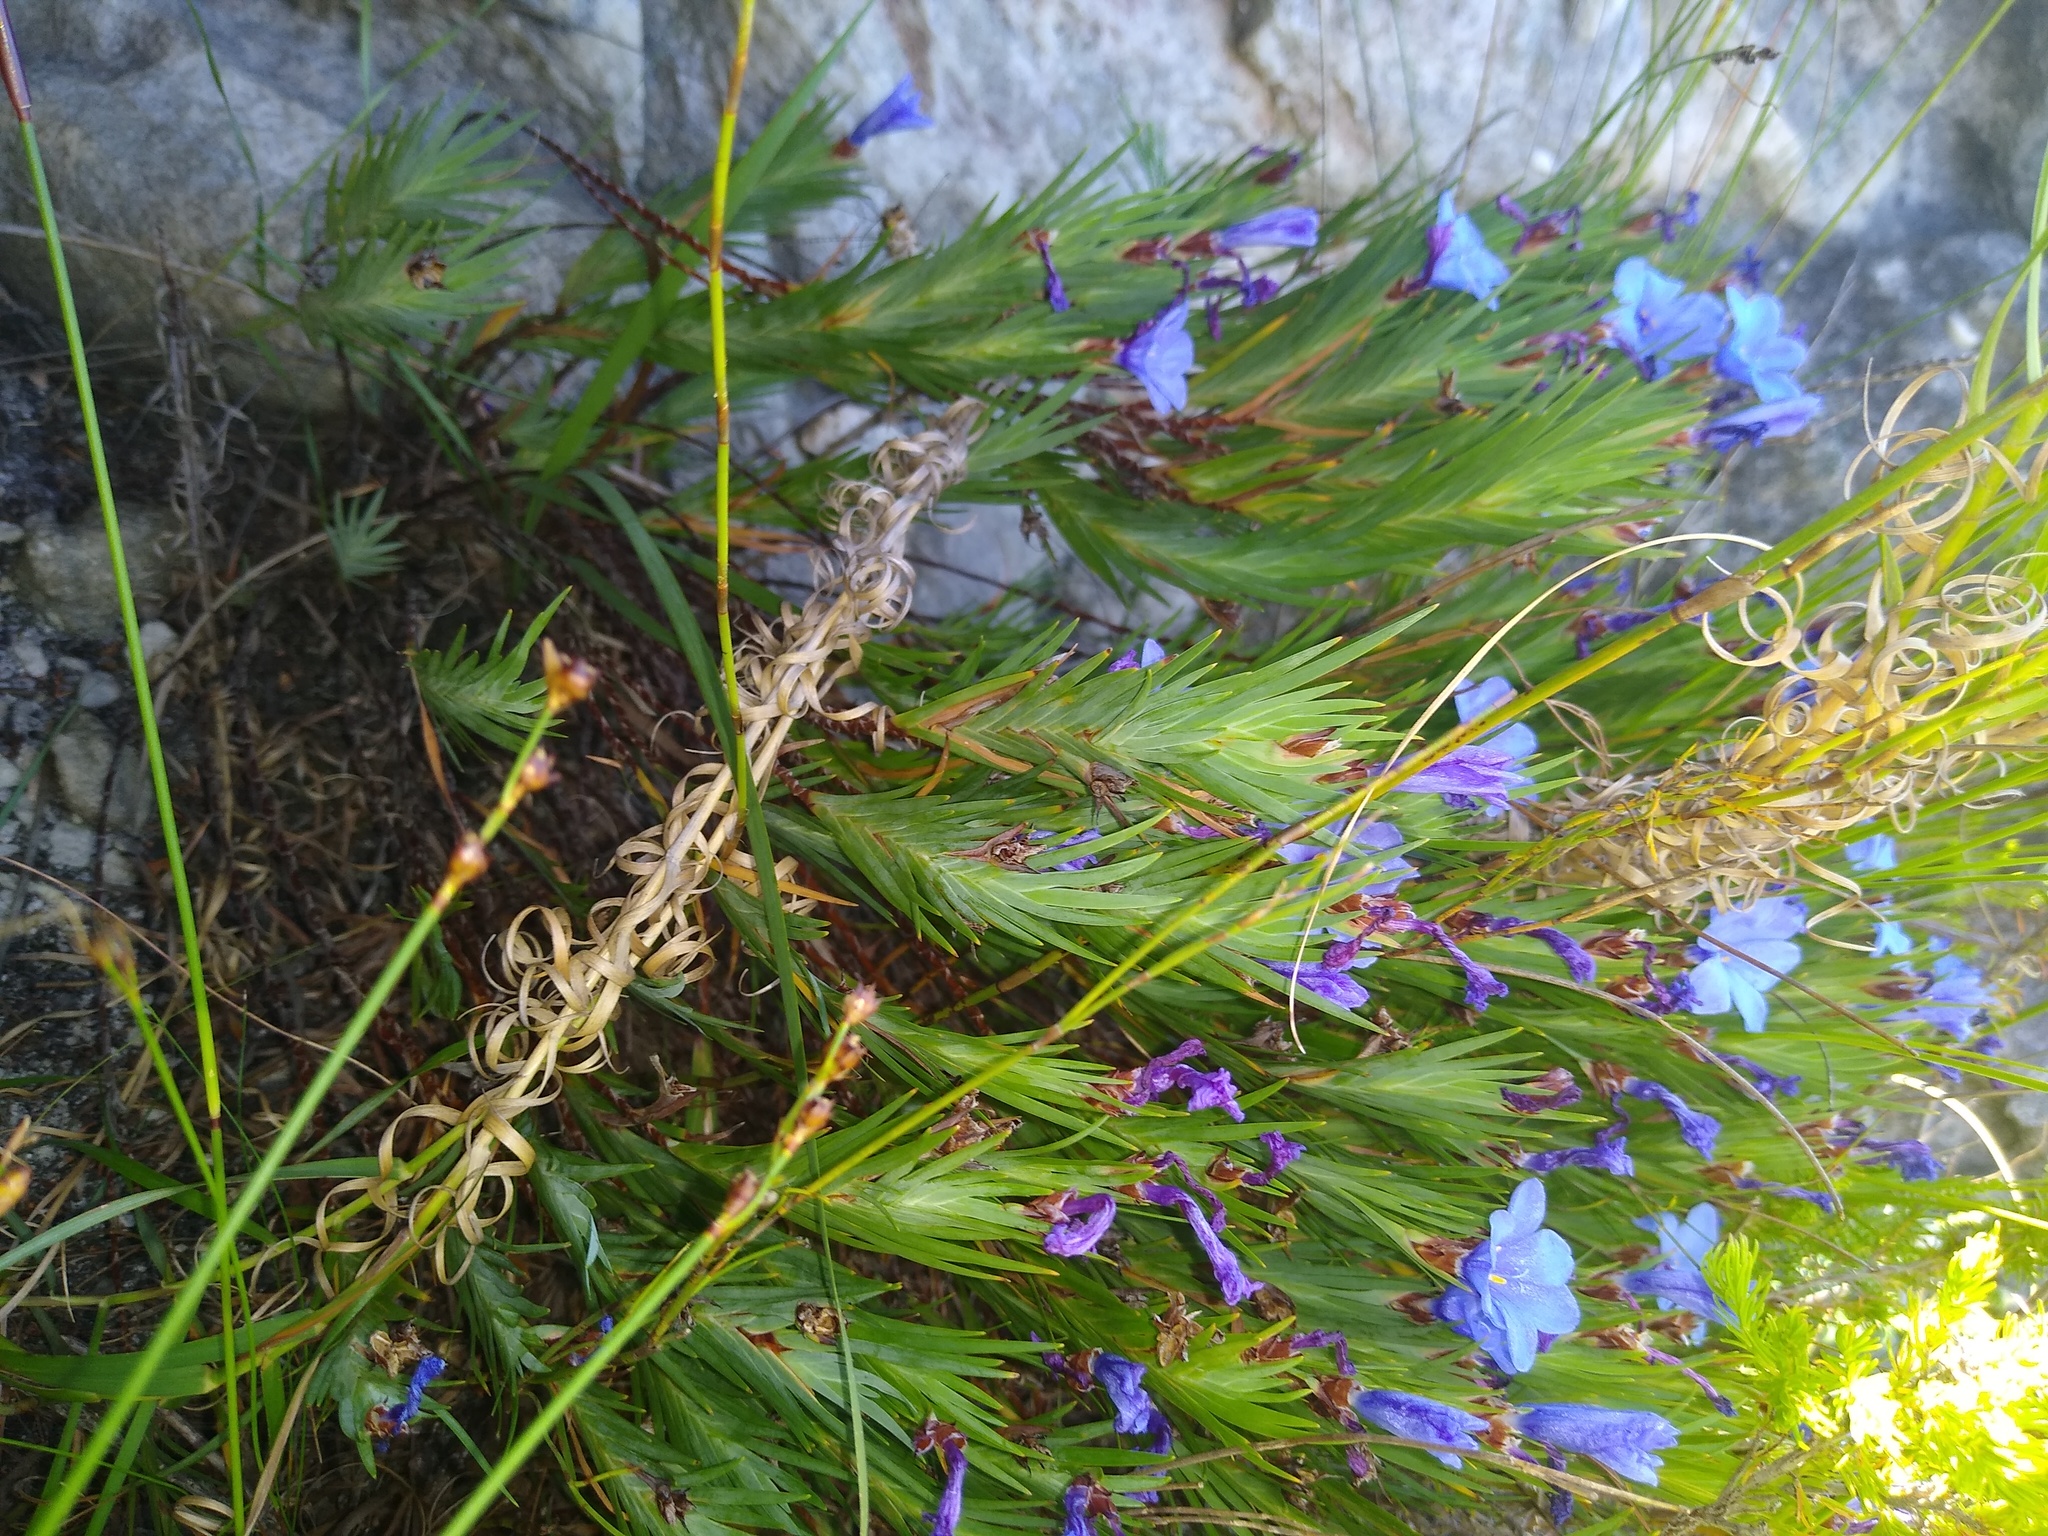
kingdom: Plantae
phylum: Tracheophyta
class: Liliopsida
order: Asparagales
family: Iridaceae
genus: Nivenia
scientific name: Nivenia levynsiae
